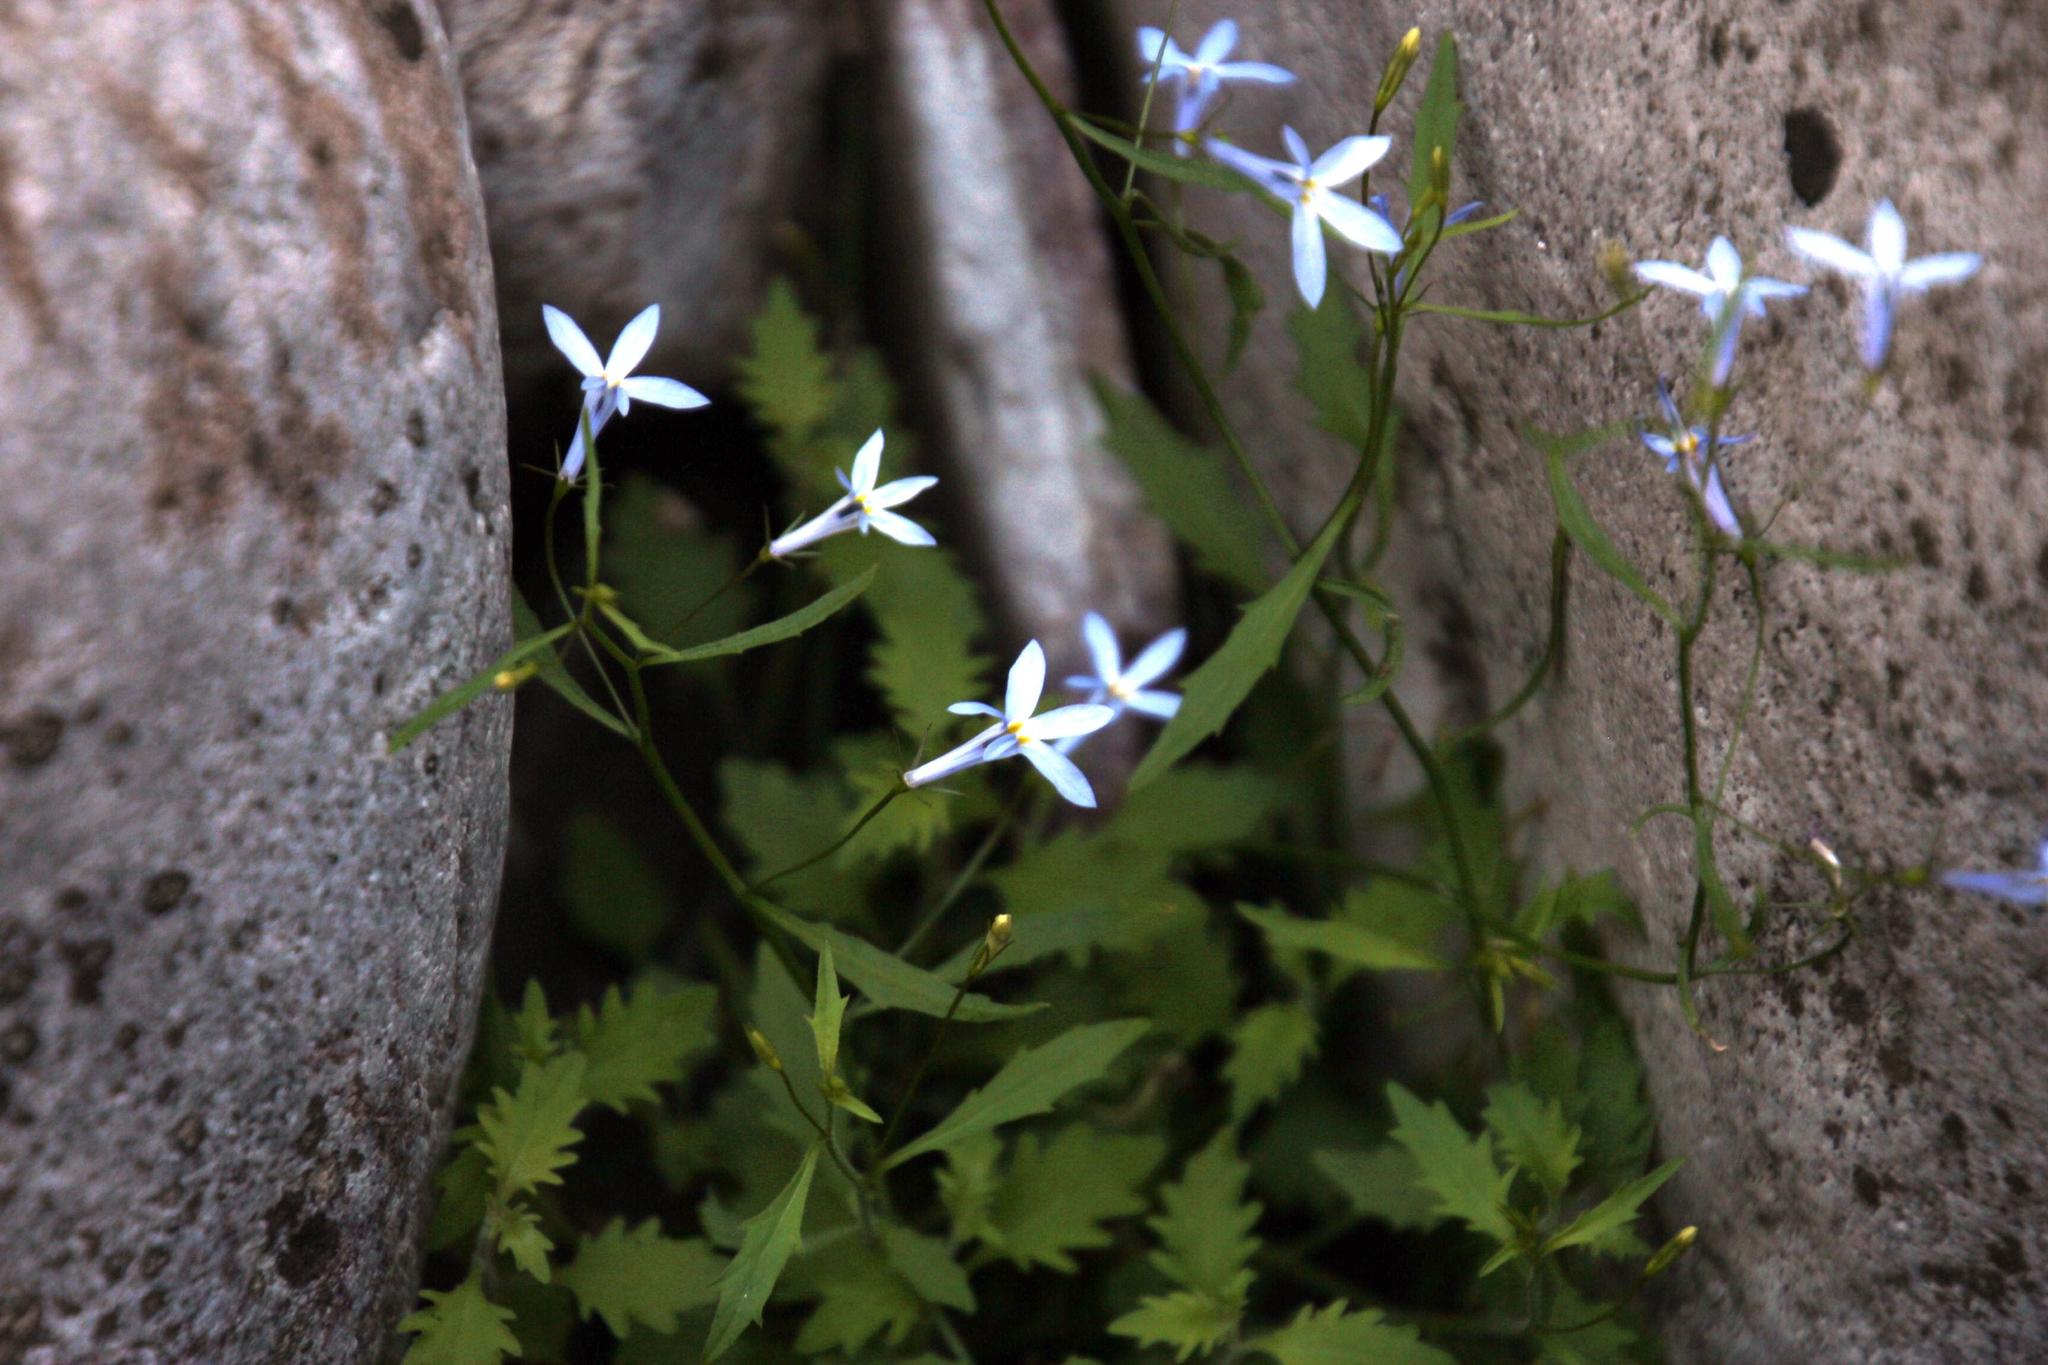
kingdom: Plantae
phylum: Tracheophyta
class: Magnoliopsida
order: Asterales
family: Campanulaceae
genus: Lobelia
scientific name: Lobelia hypsibata
